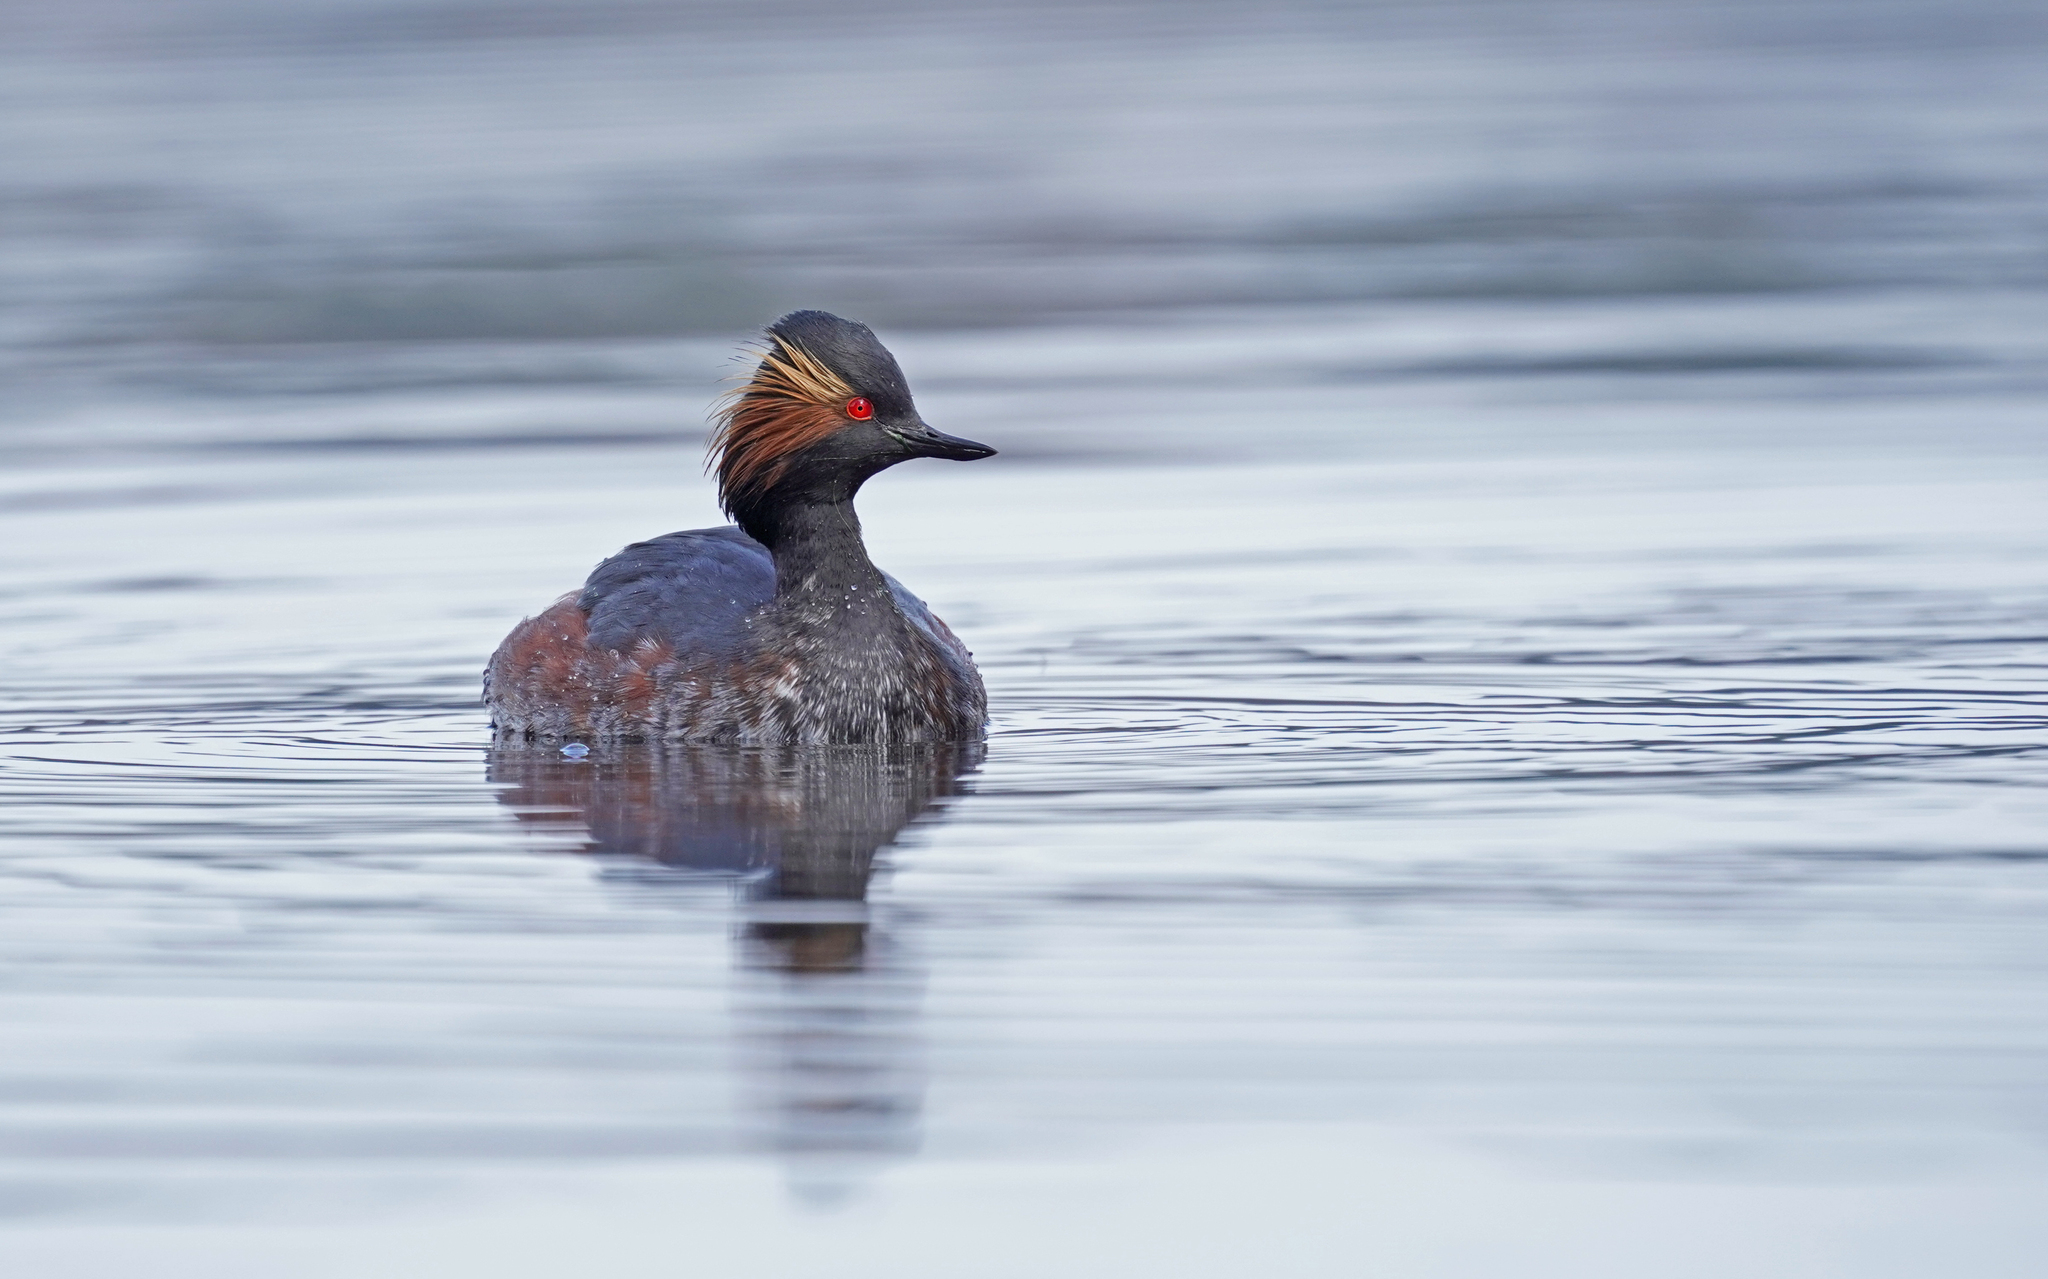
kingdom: Animalia
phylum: Chordata
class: Aves
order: Podicipediformes
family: Podicipedidae
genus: Podiceps
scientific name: Podiceps nigricollis
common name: Black-necked grebe
